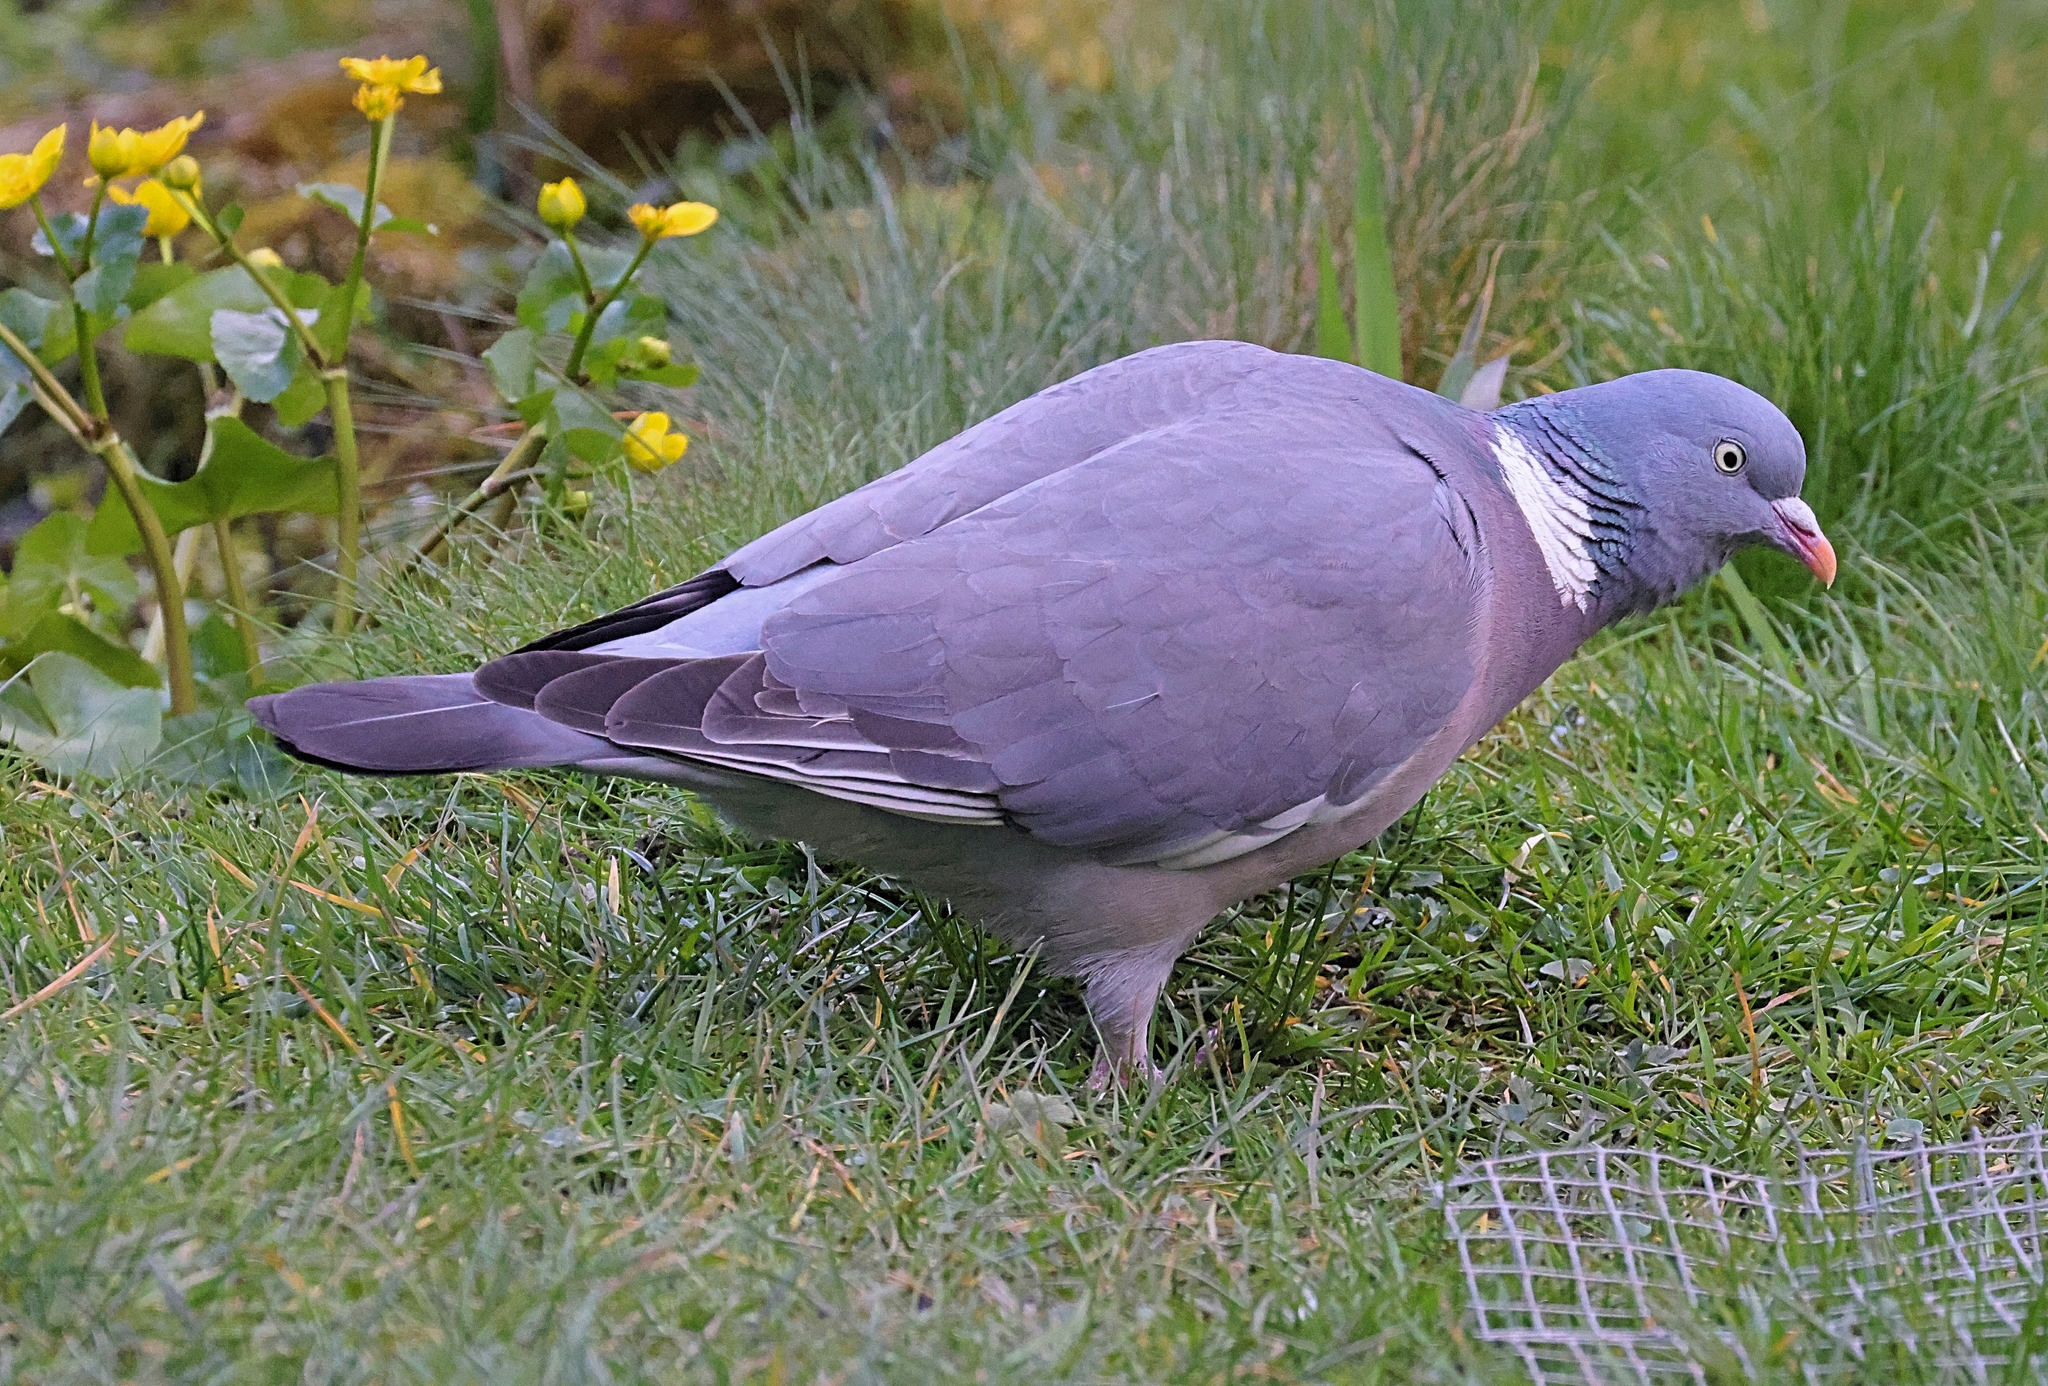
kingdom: Animalia
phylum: Chordata
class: Aves
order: Columbiformes
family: Columbidae
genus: Columba
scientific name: Columba palumbus
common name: Common wood pigeon
